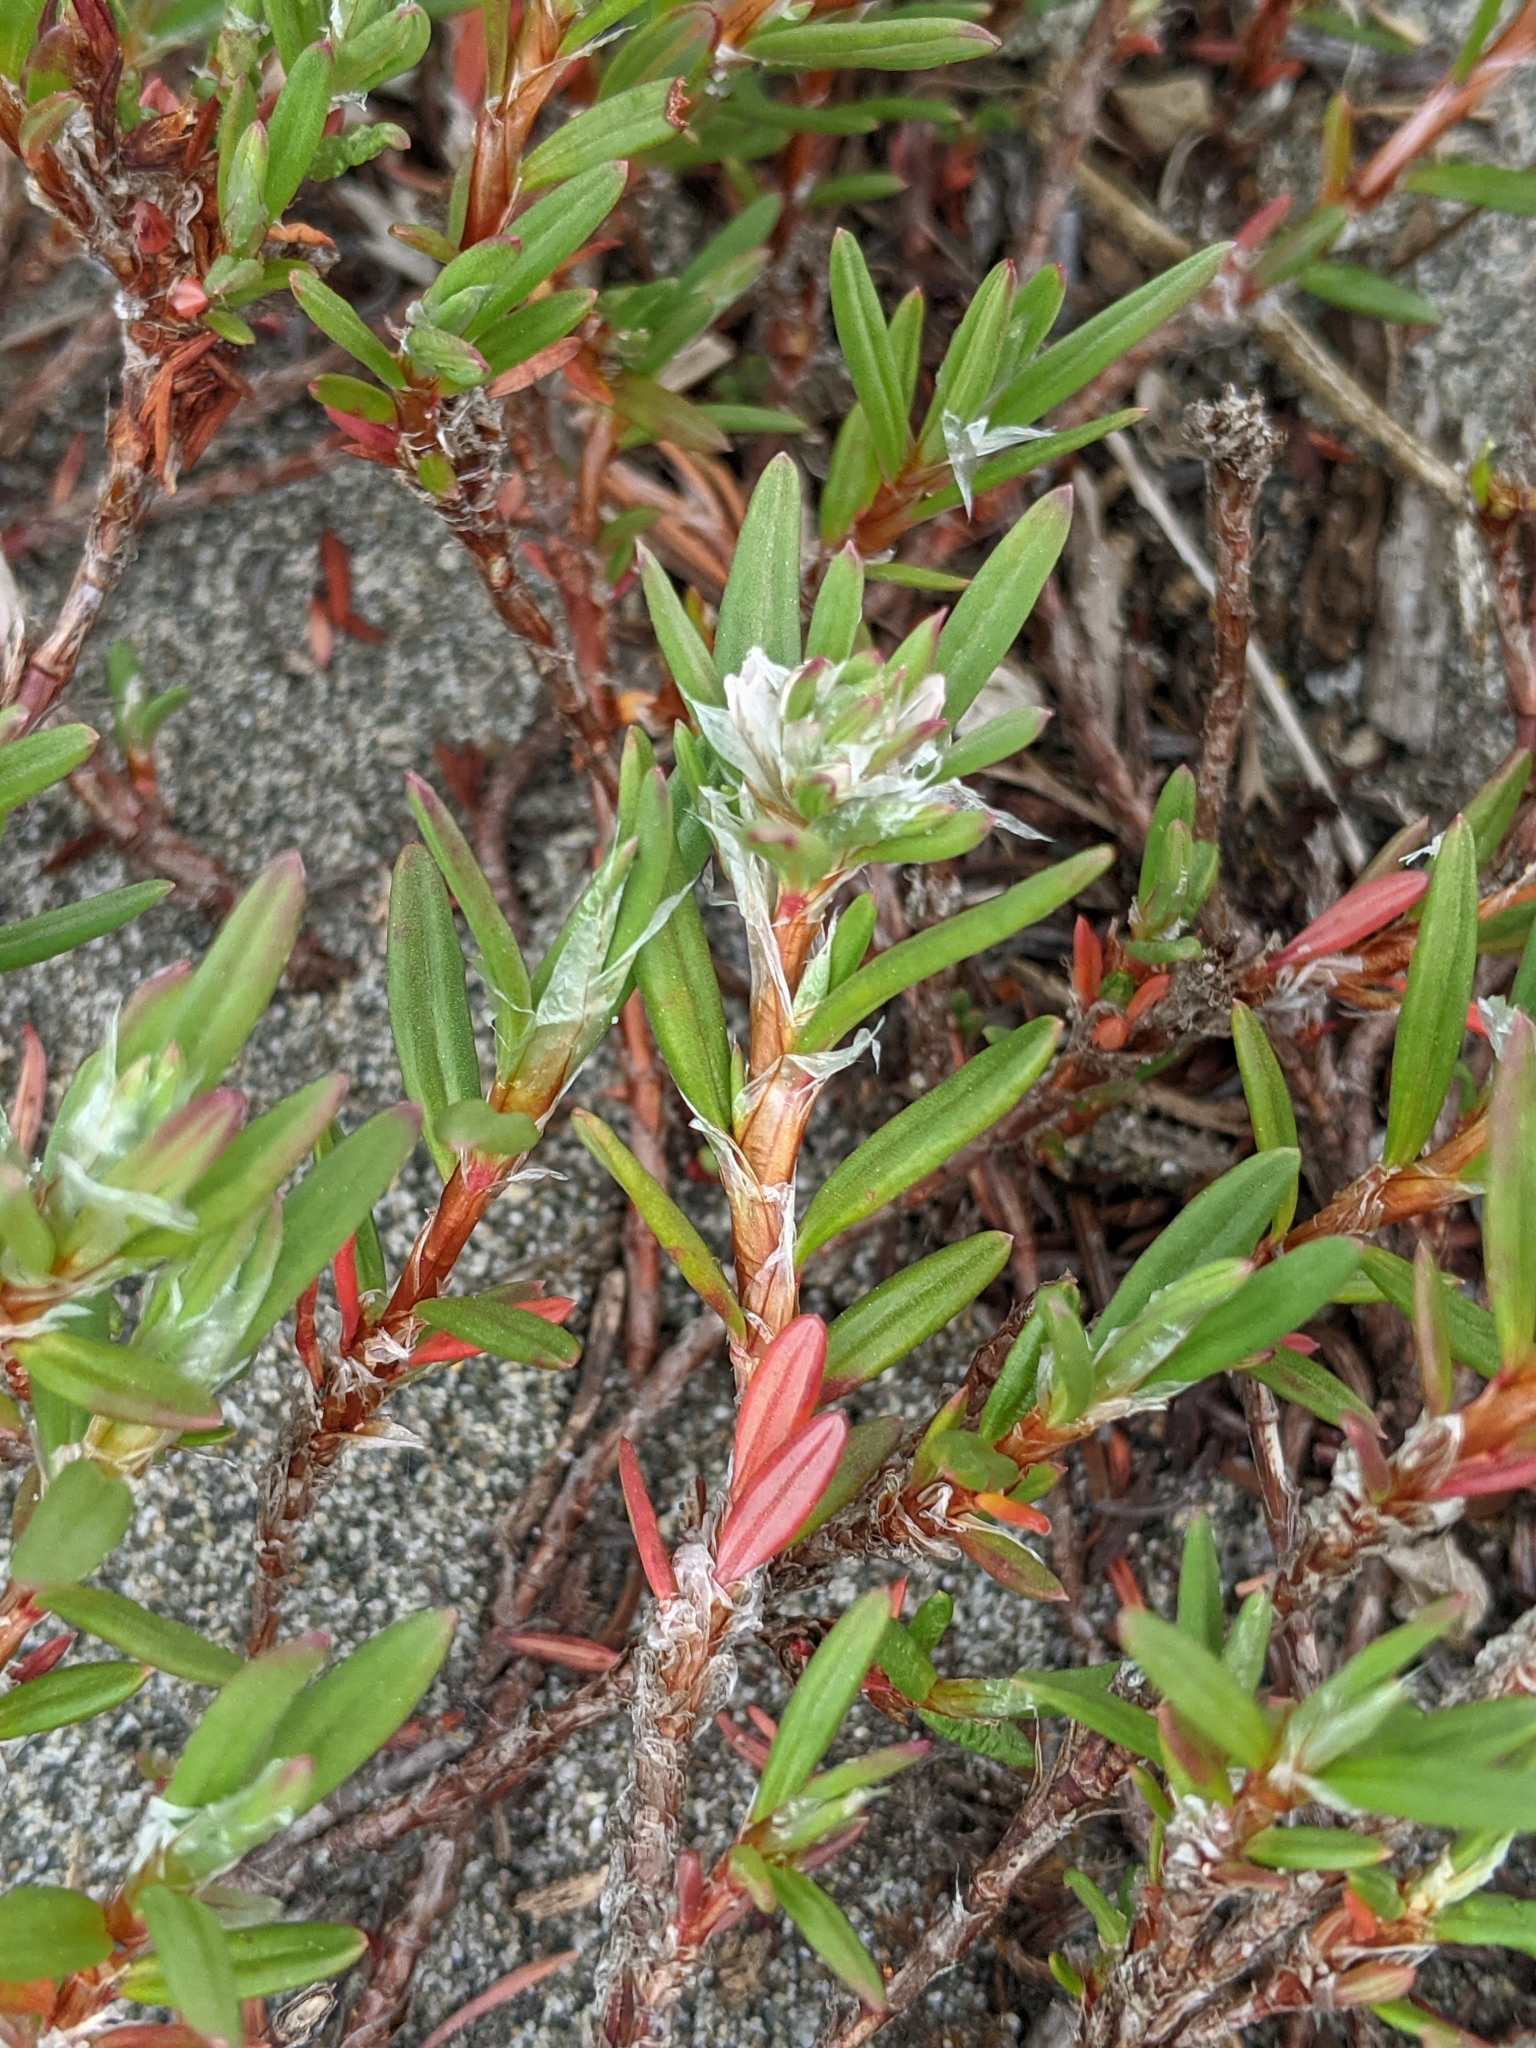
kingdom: Plantae
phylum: Tracheophyta
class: Magnoliopsida
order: Caryophyllales
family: Polygonaceae
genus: Polygonum
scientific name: Polygonum paronychia
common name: Dune knotweed
